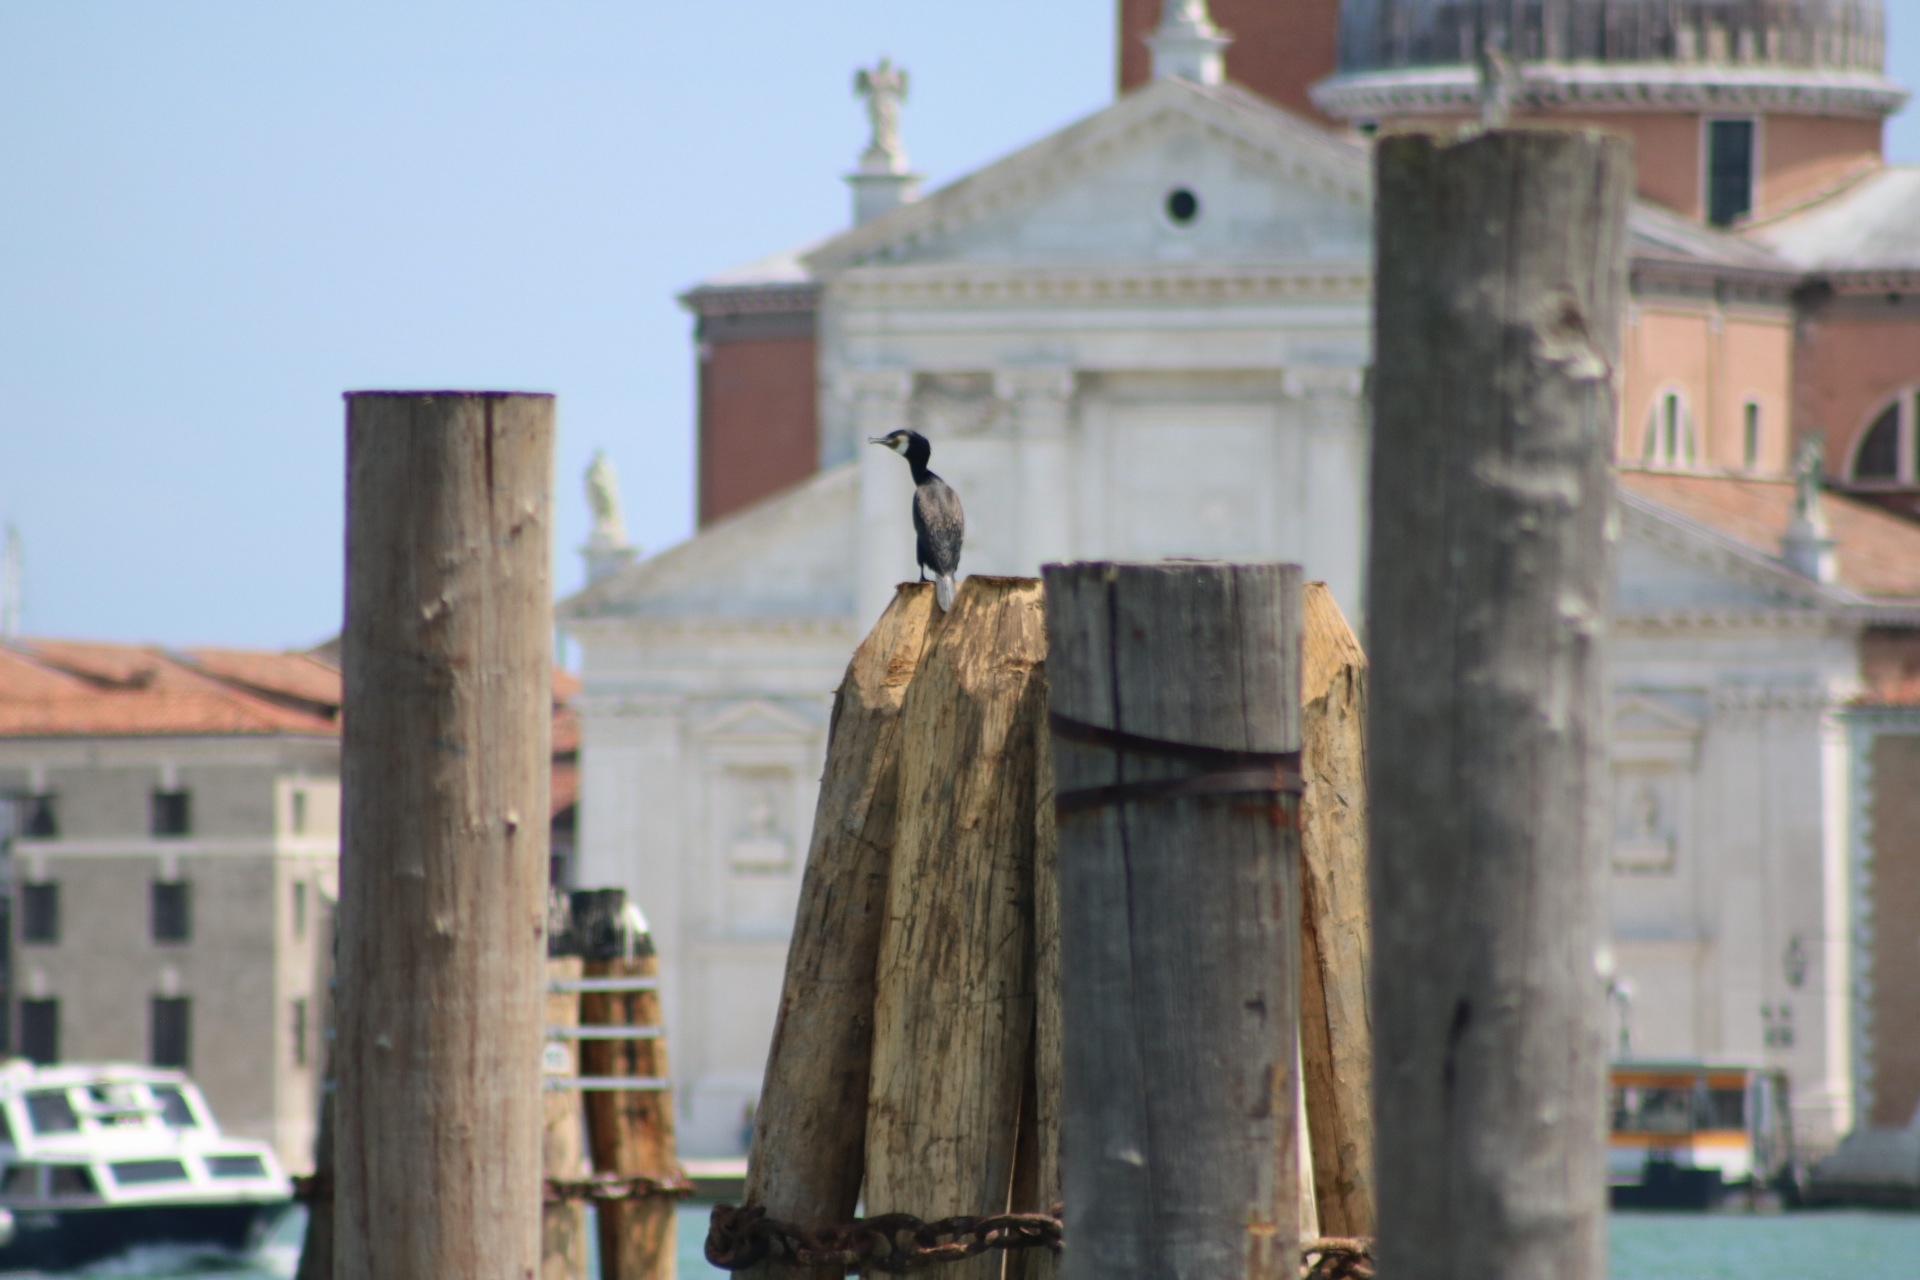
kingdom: Animalia
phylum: Chordata
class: Aves
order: Suliformes
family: Phalacrocoracidae
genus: Phalacrocorax
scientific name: Phalacrocorax carbo
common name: Great cormorant
